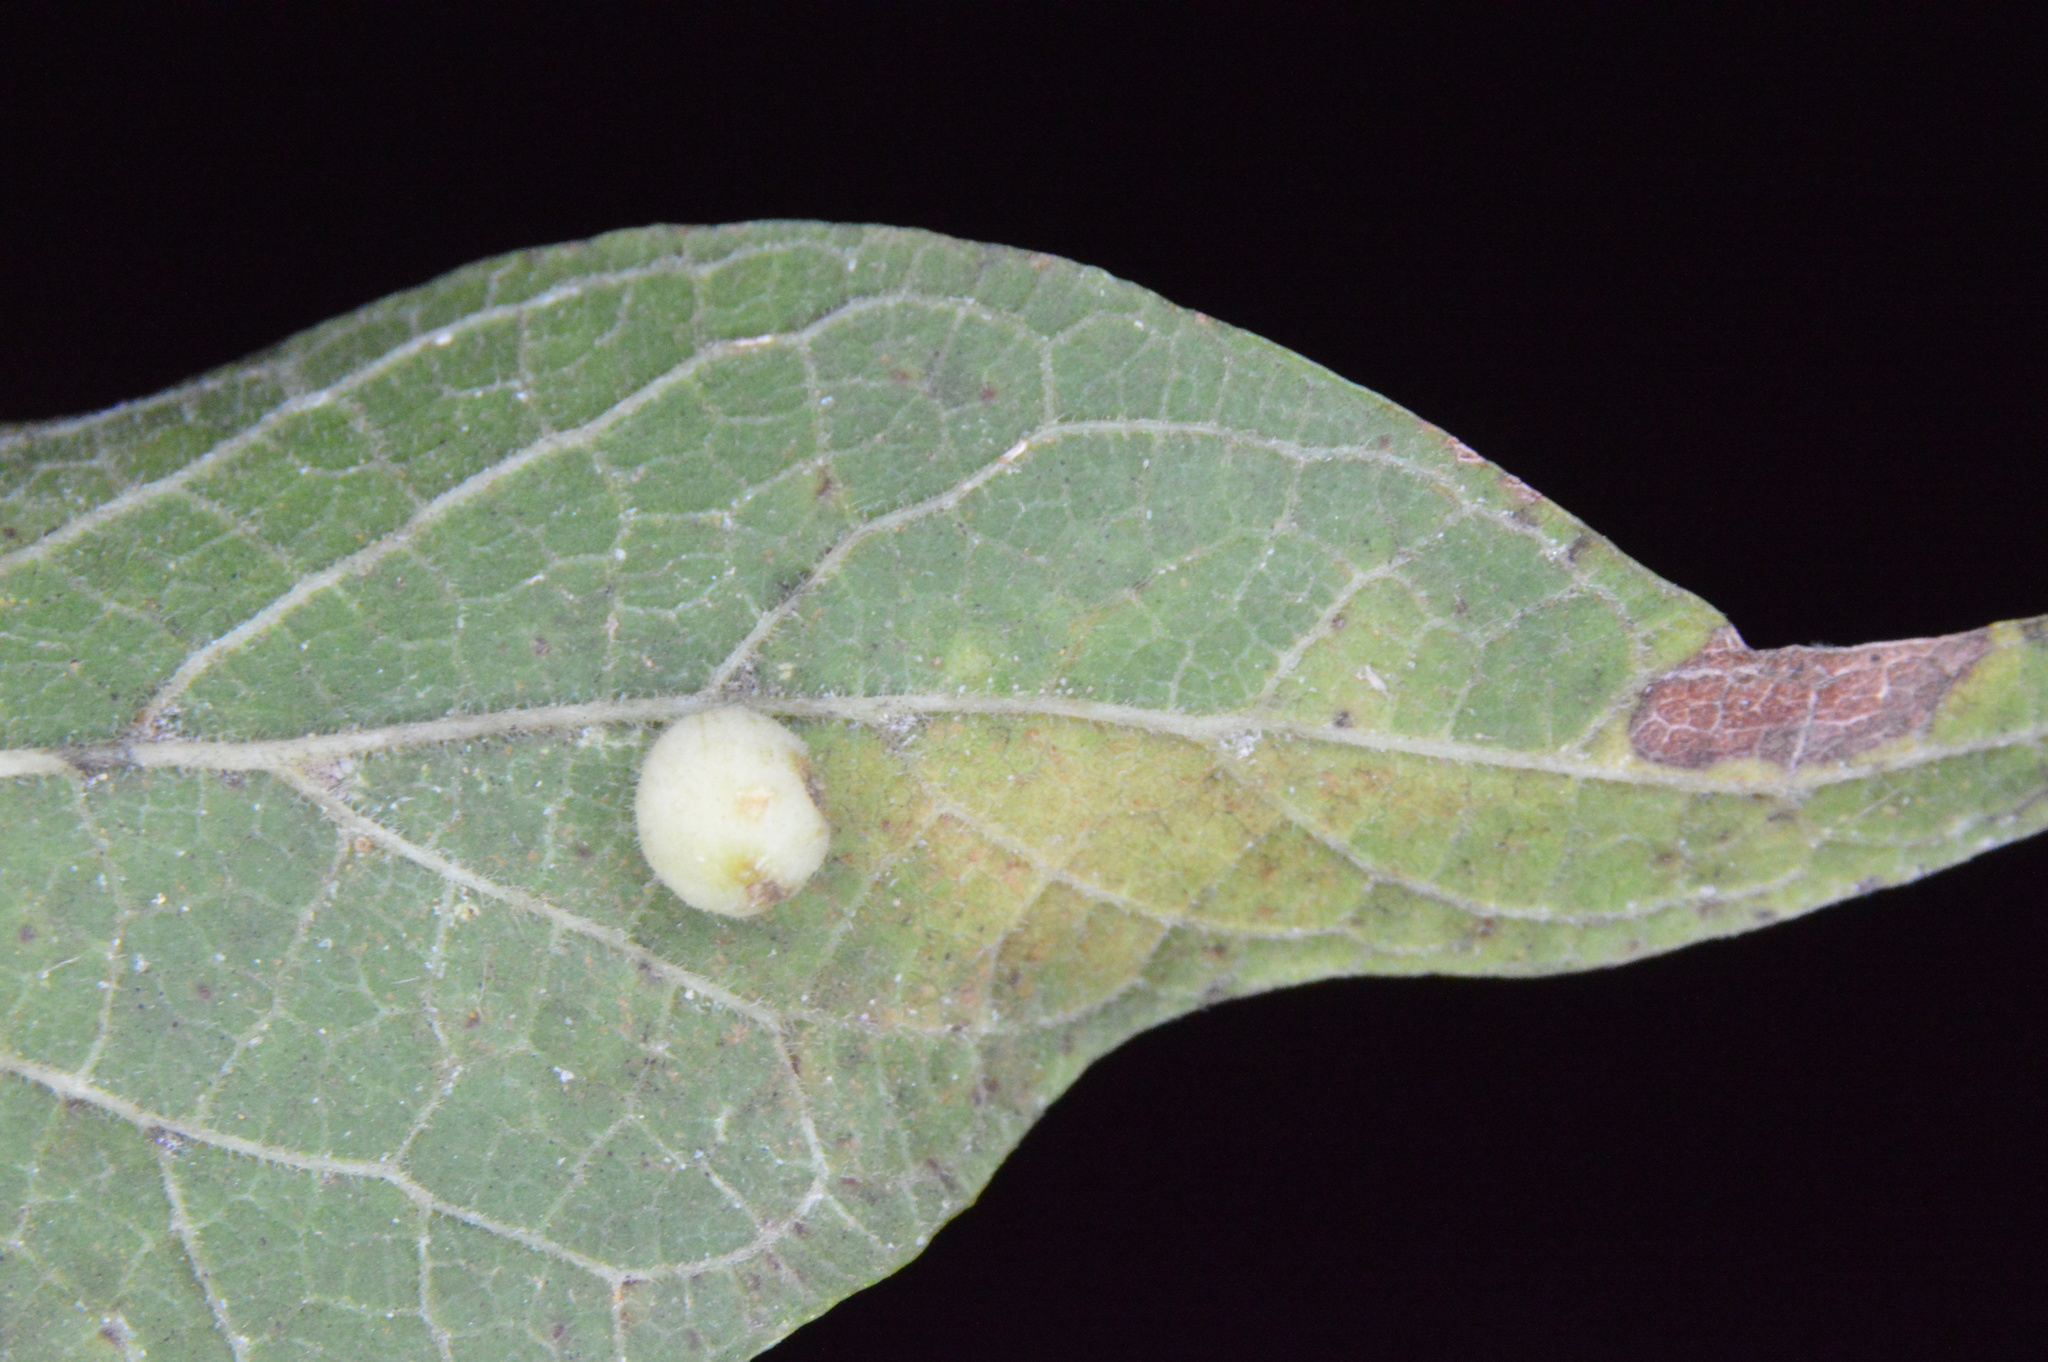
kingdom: Animalia
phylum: Arthropoda
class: Insecta
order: Diptera
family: Cecidomyiidae
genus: Celticecis
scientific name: Celticecis globosa
